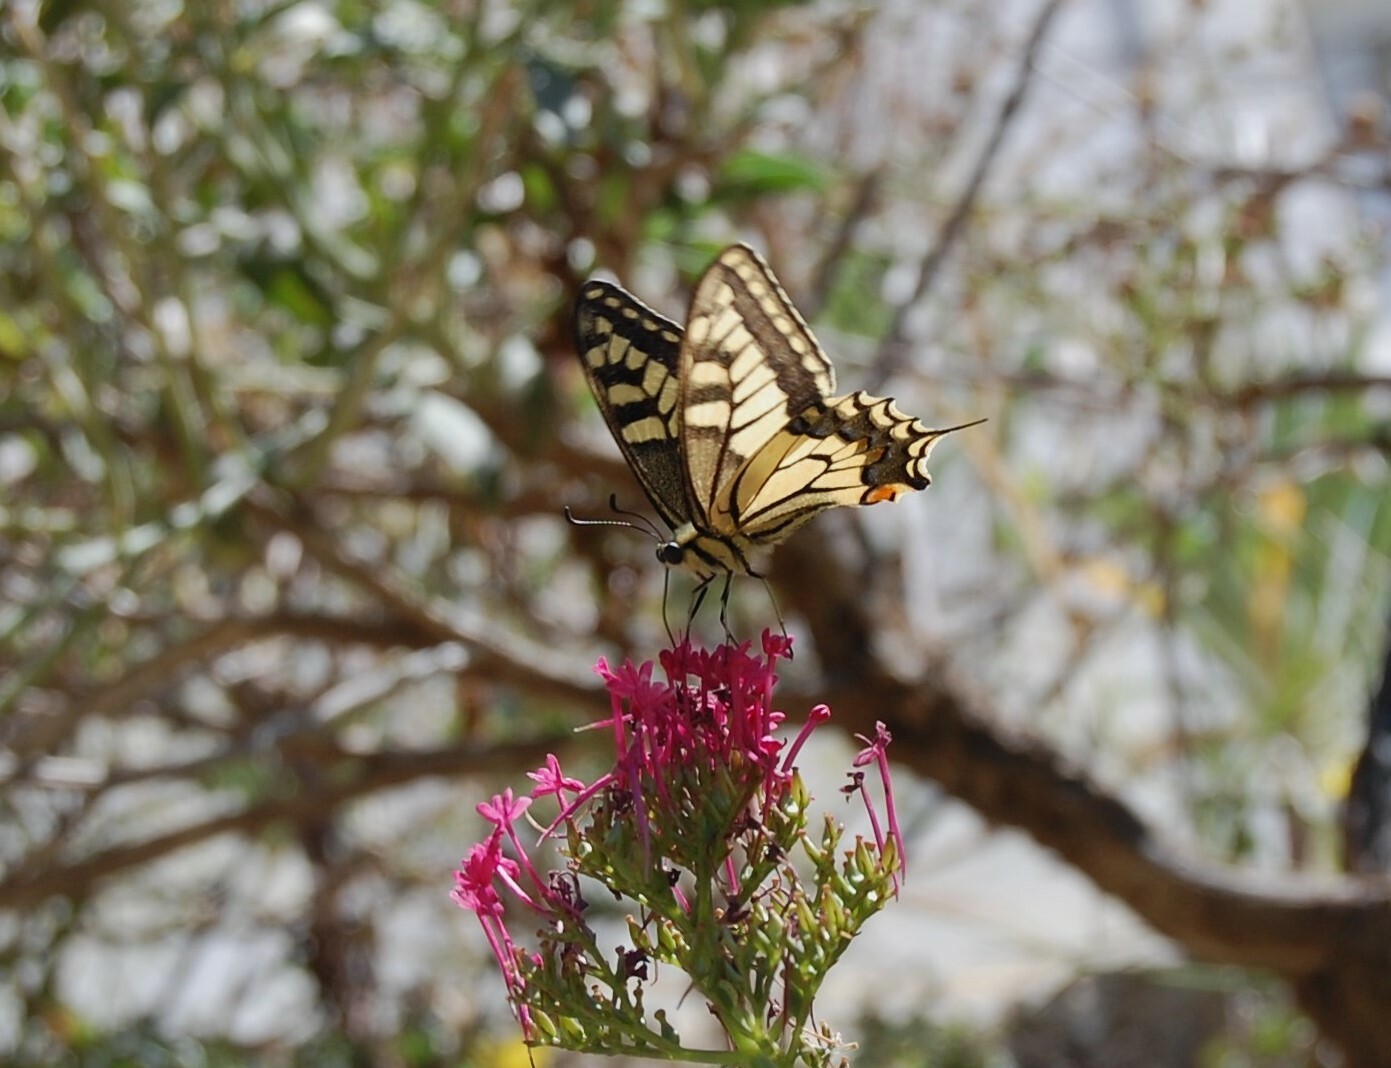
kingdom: Animalia
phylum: Arthropoda
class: Insecta
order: Lepidoptera
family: Papilionidae
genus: Papilio
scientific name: Papilio machaon
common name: Swallowtail
